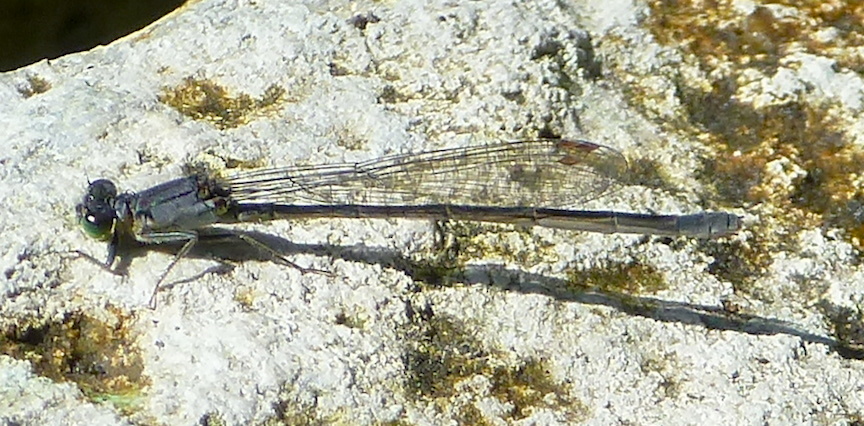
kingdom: Animalia
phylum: Arthropoda
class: Insecta
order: Odonata
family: Coenagrionidae
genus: Ischnura
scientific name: Ischnura cervula
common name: Pacific forktail
